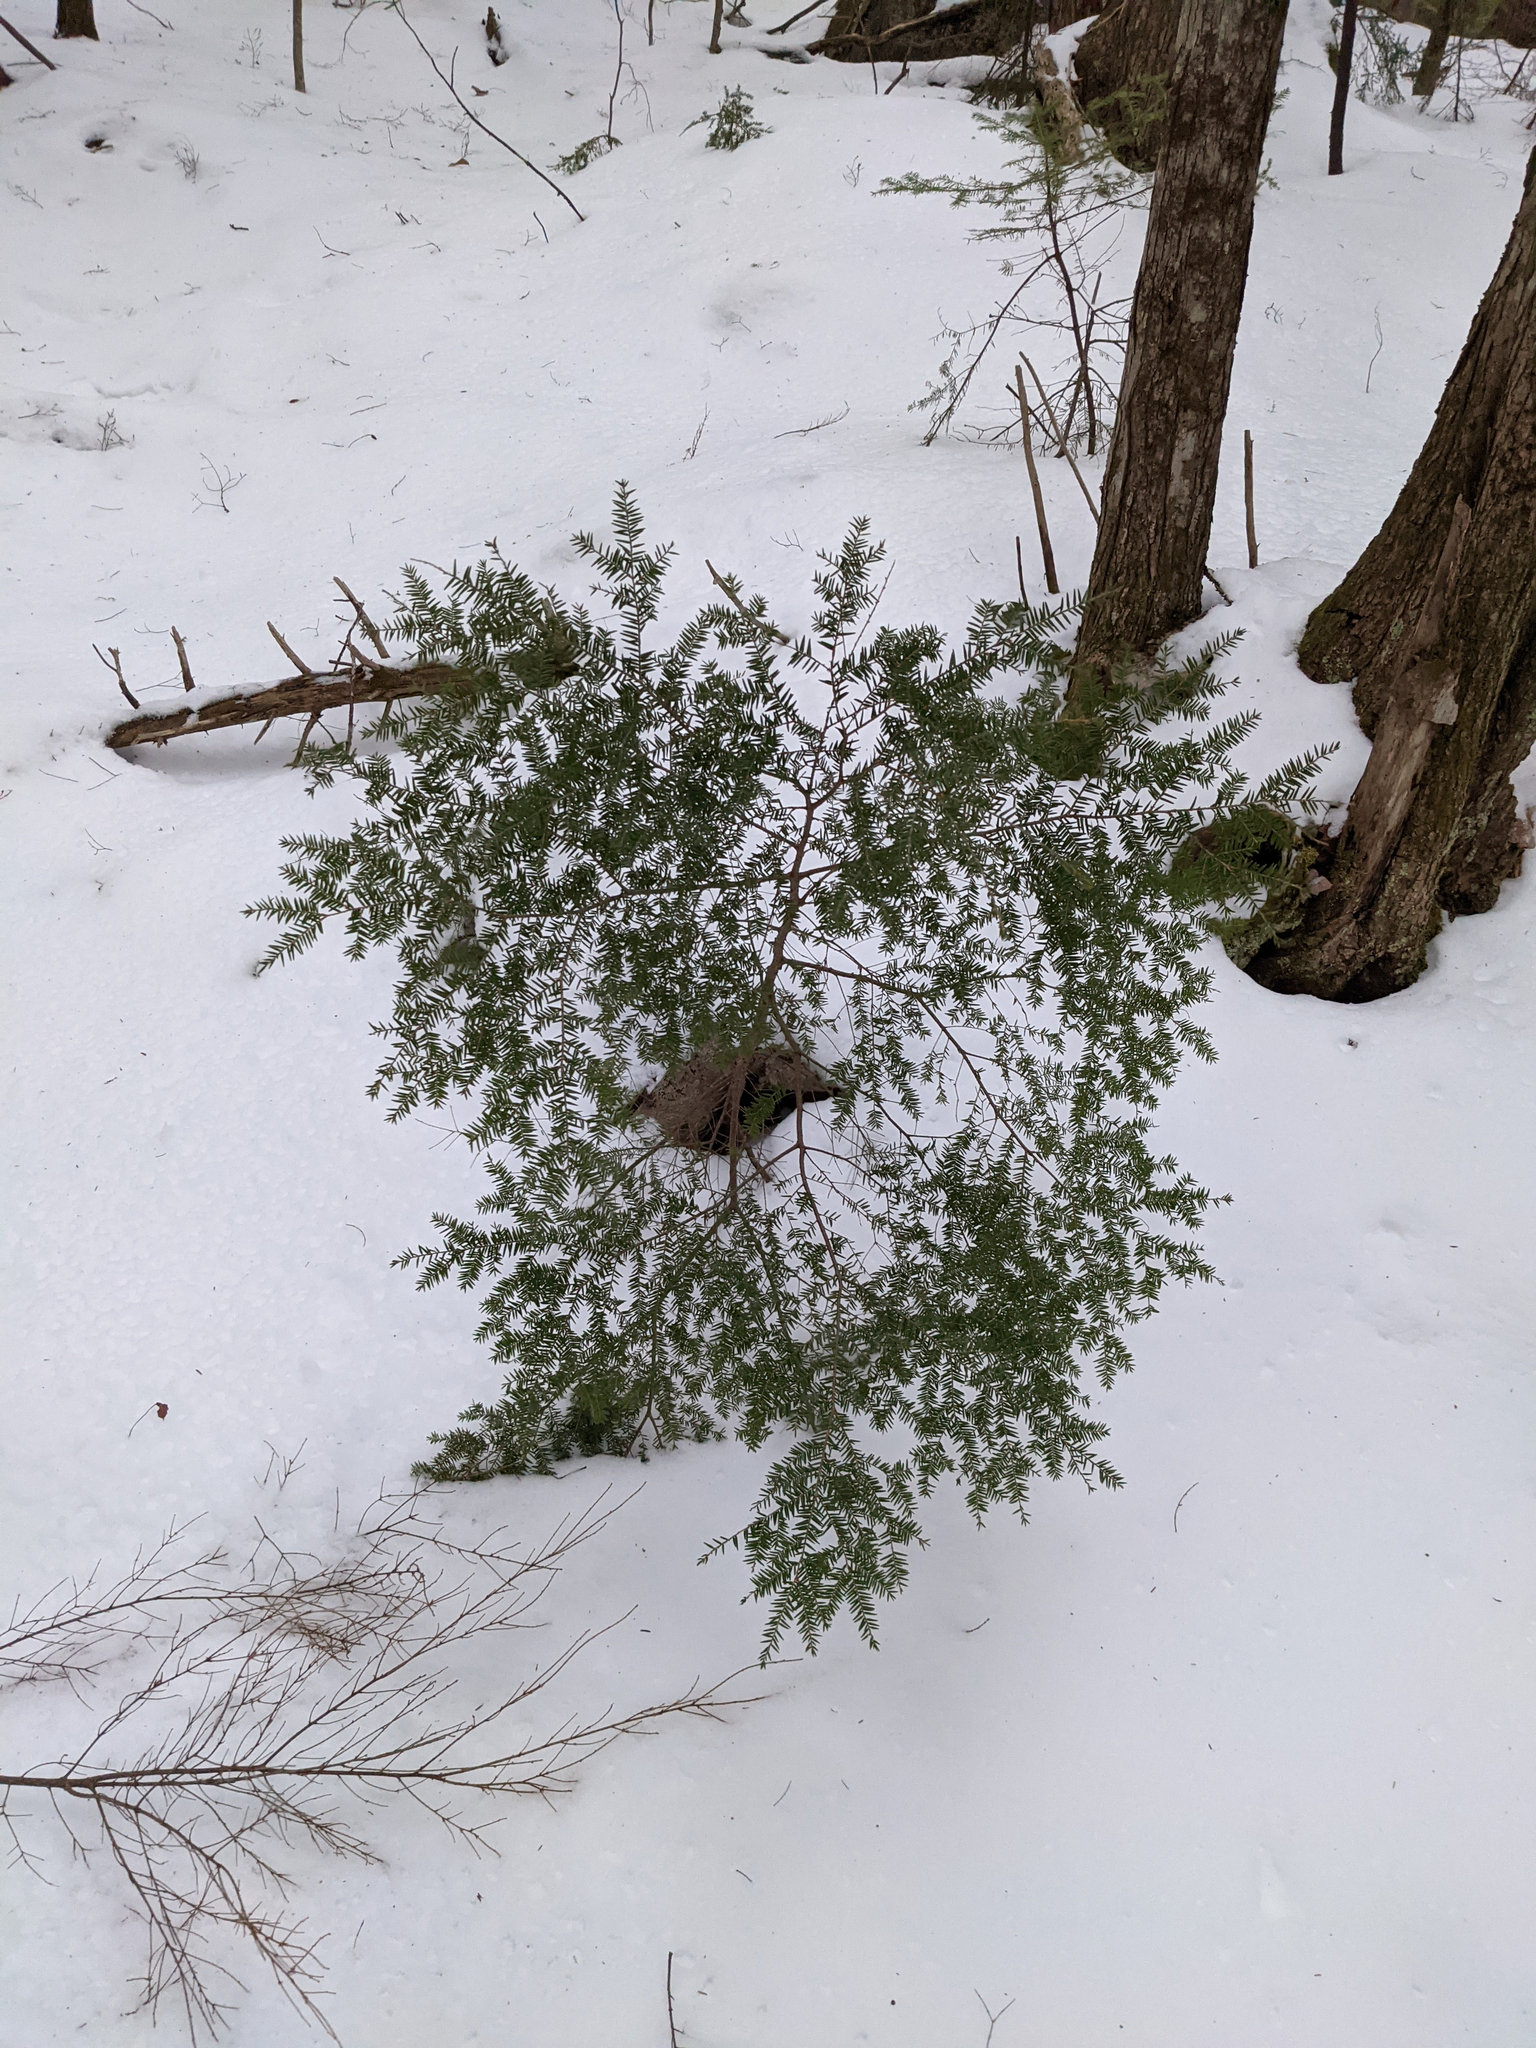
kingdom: Plantae
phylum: Tracheophyta
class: Pinopsida
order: Pinales
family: Pinaceae
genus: Tsuga
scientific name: Tsuga canadensis
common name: Eastern hemlock
